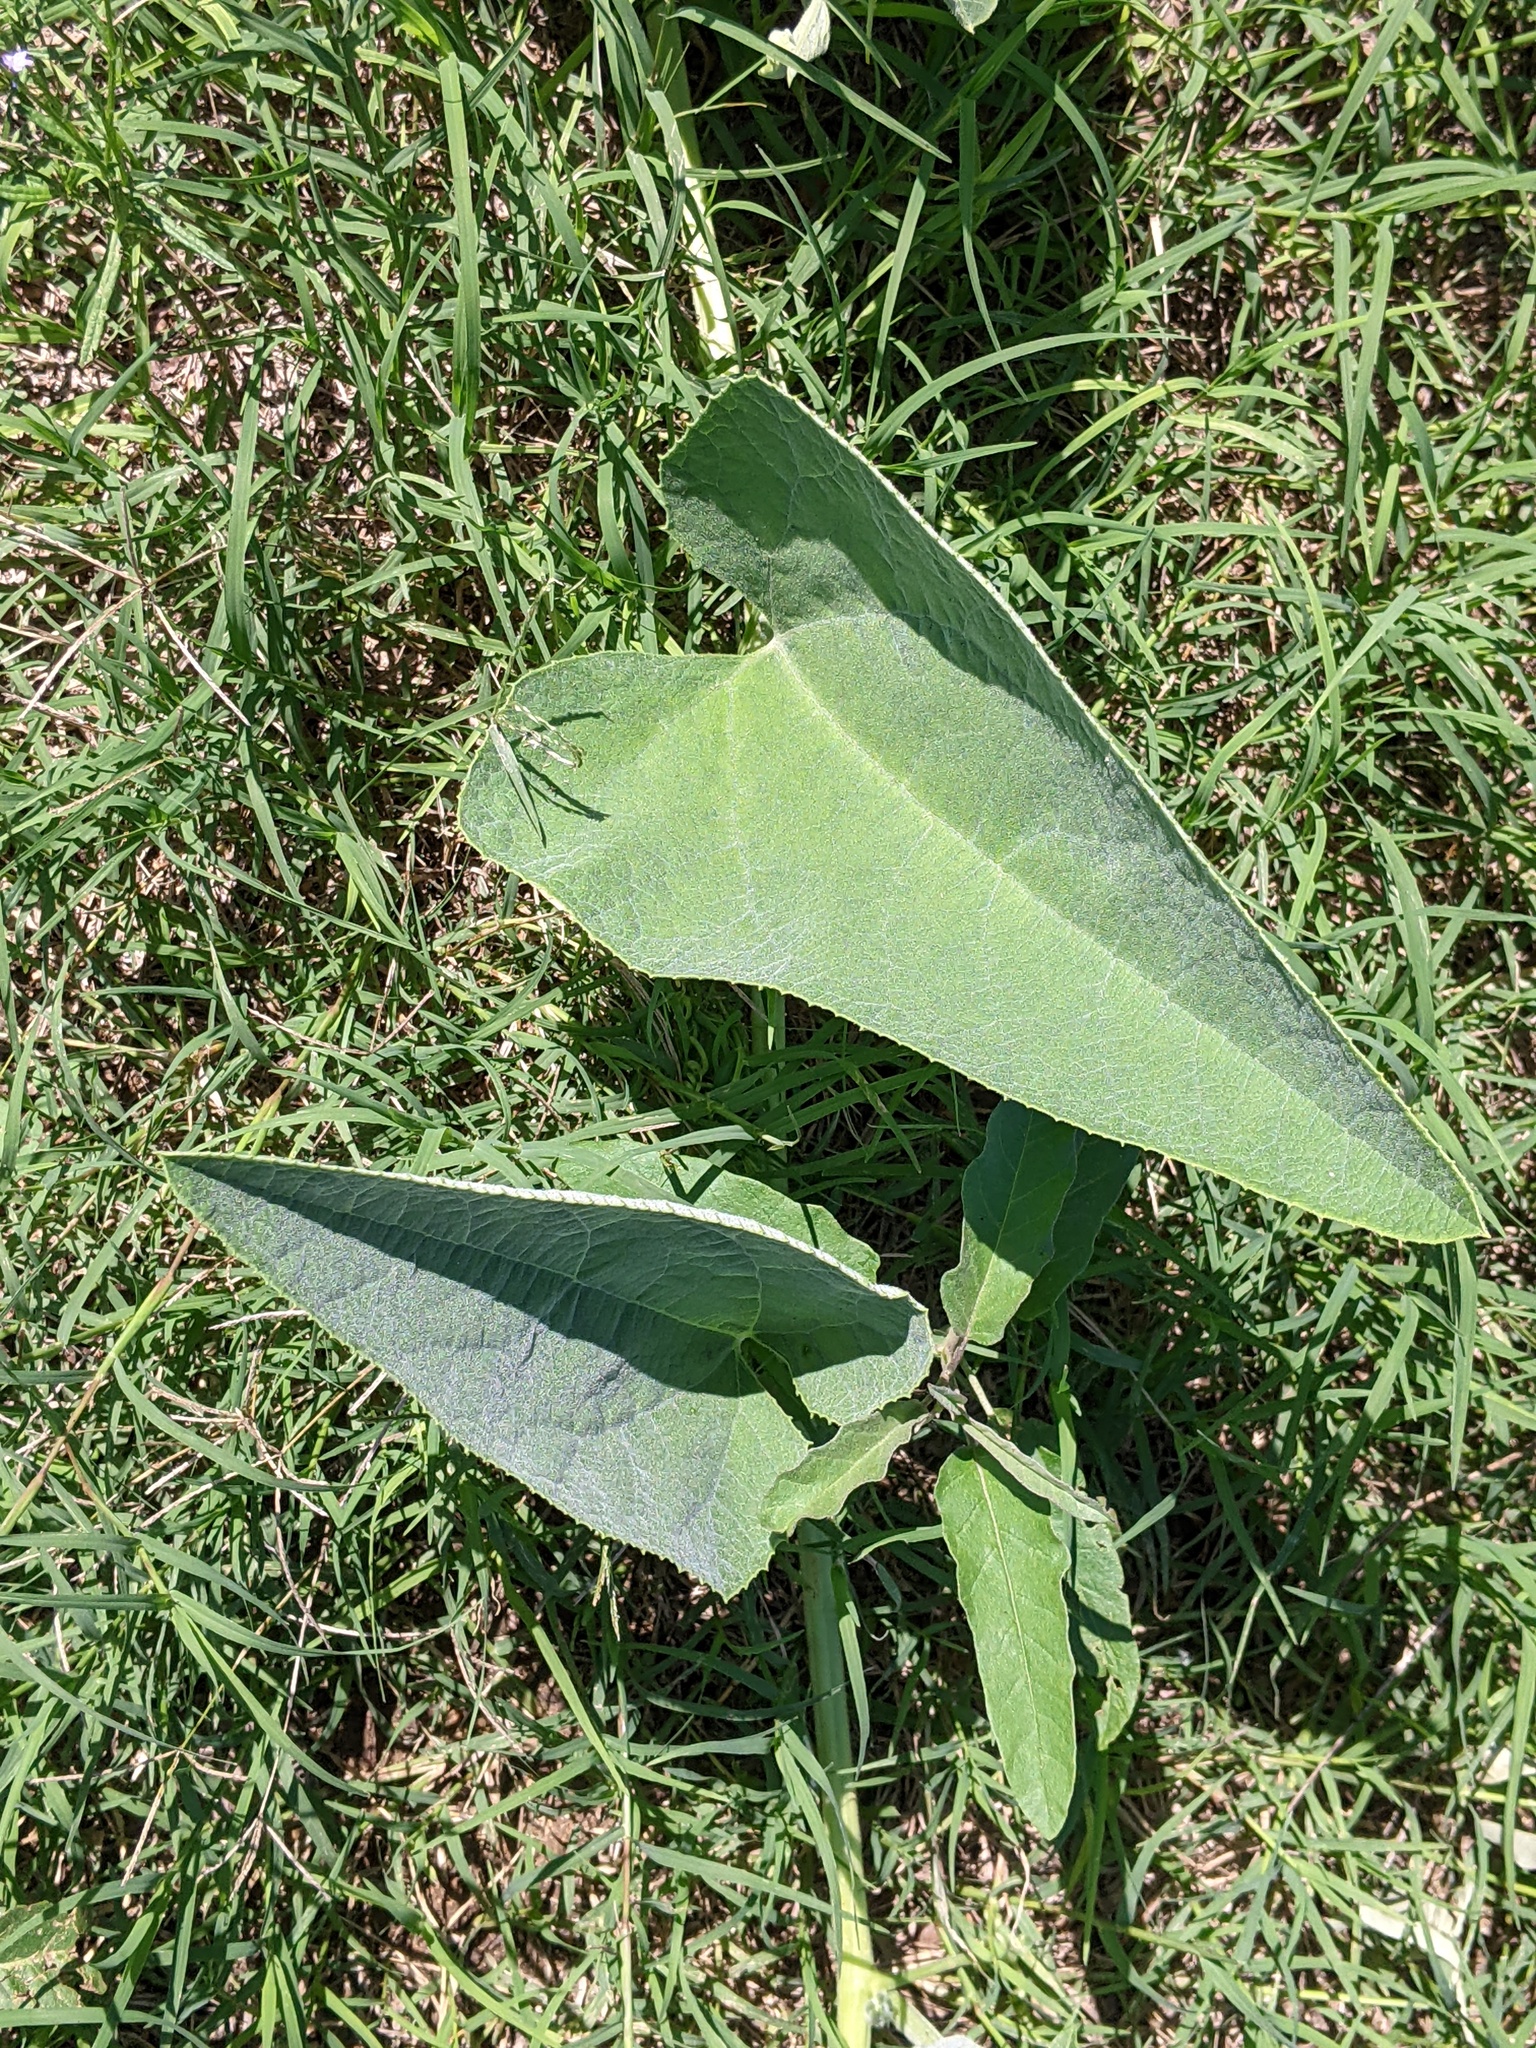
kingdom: Plantae
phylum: Tracheophyta
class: Magnoliopsida
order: Cucurbitales
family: Cucurbitaceae
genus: Cucurbita
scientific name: Cucurbita foetidissima
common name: Buffalo gourd
